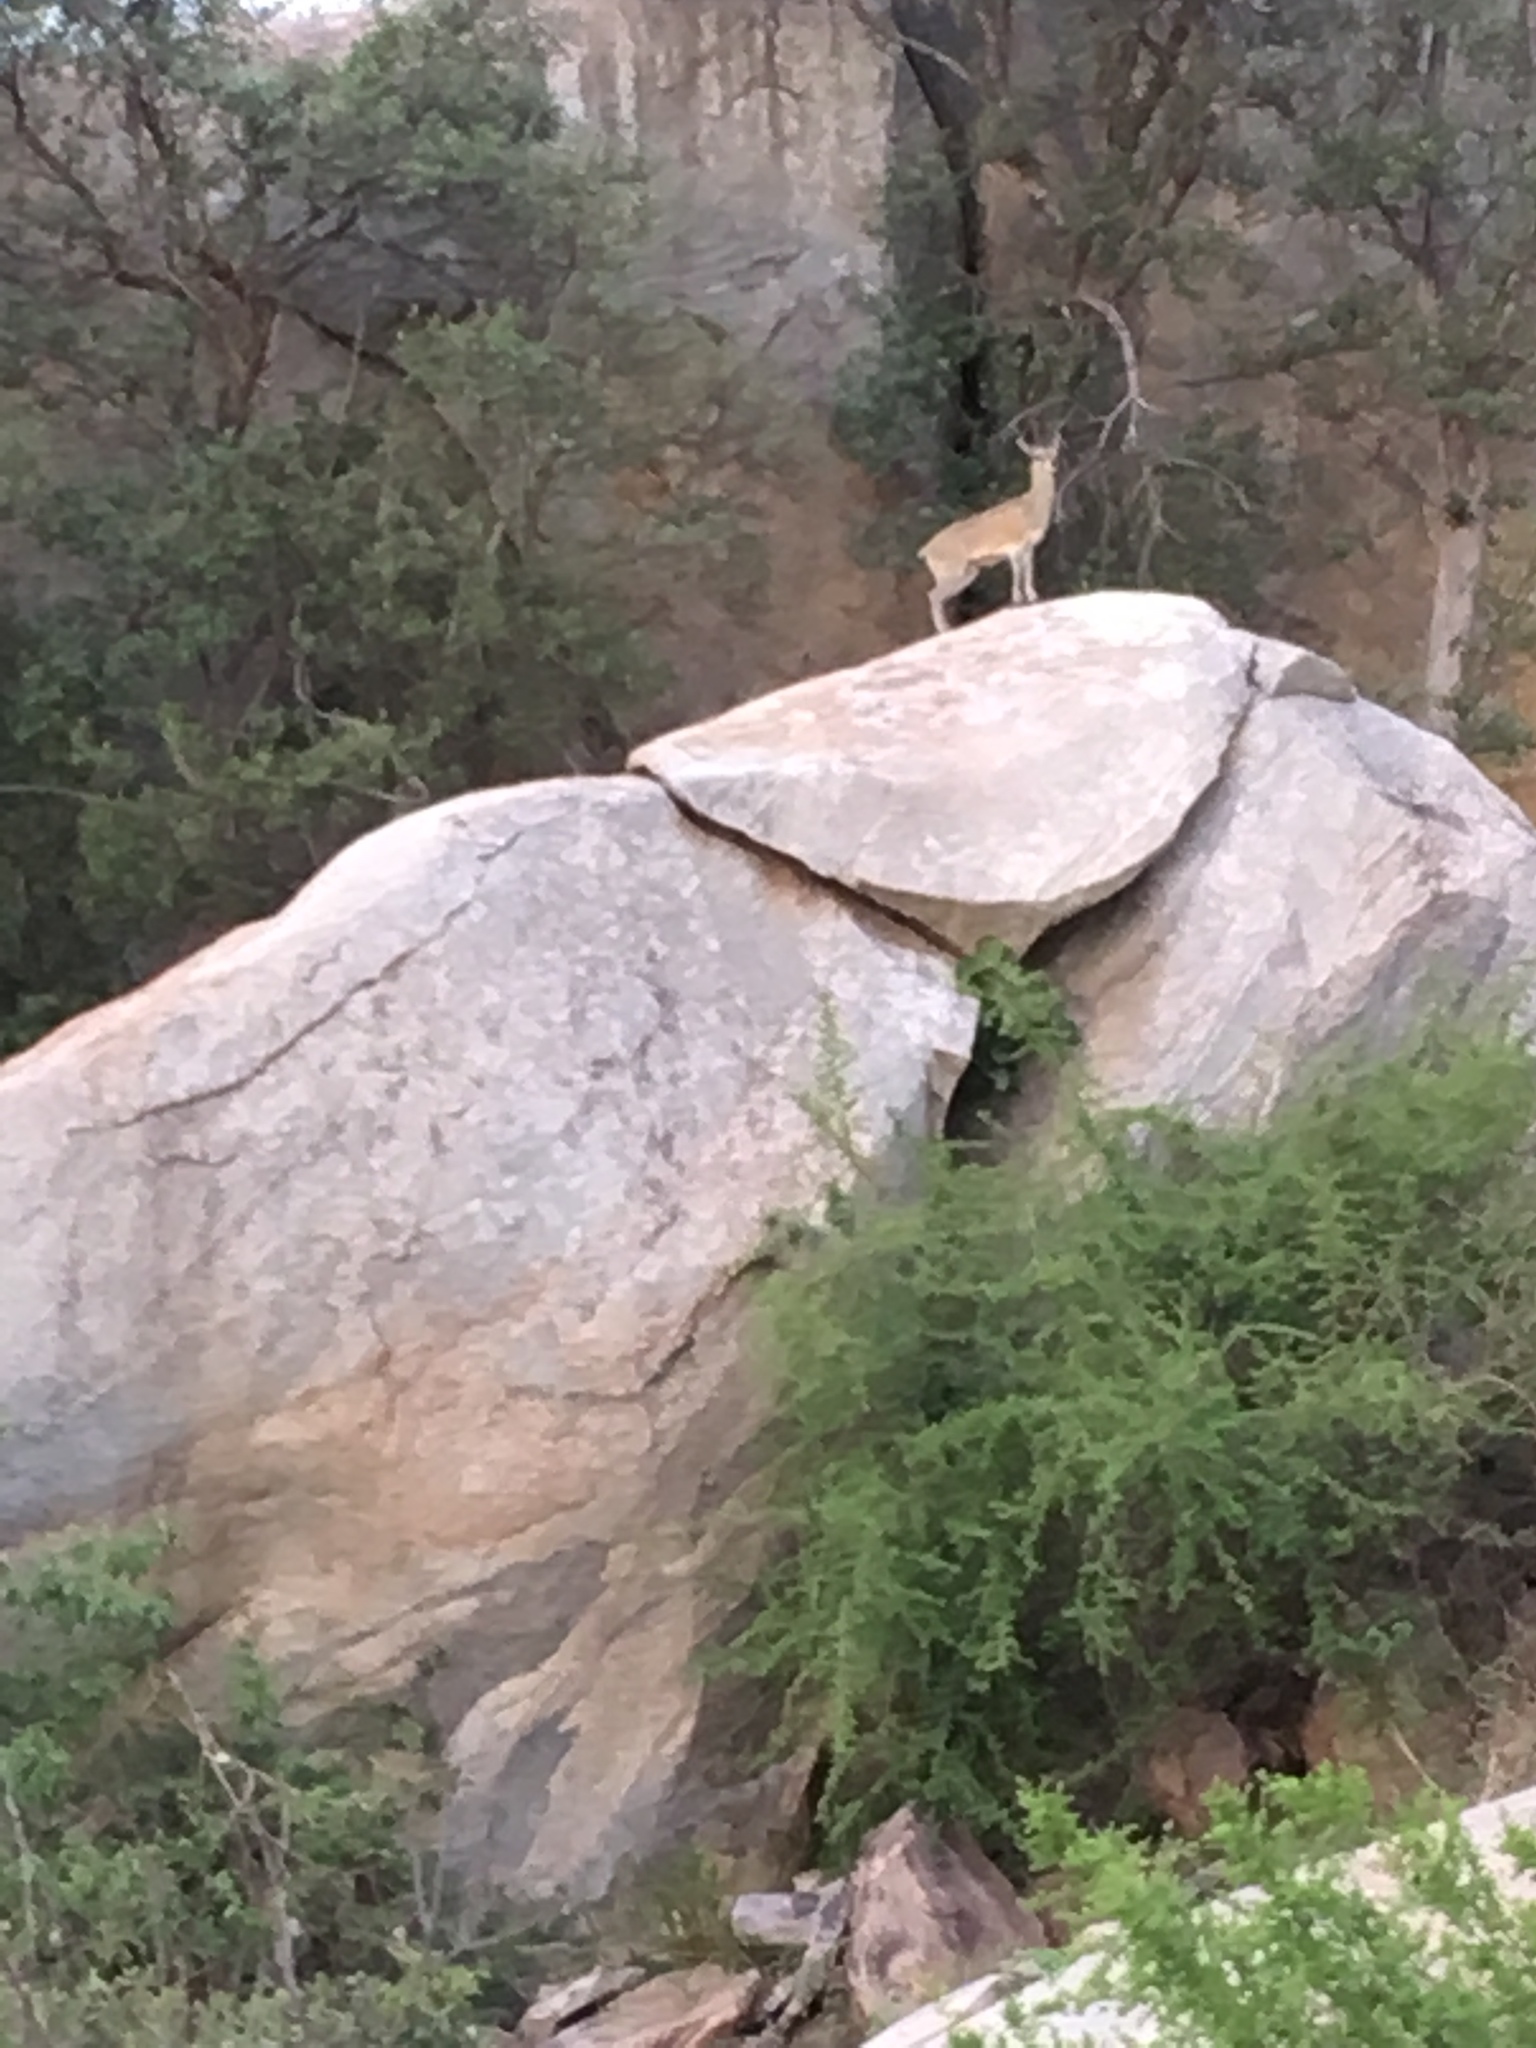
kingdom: Animalia
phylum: Chordata
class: Mammalia
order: Artiodactyla
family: Bovidae
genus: Oreotragus
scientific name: Oreotragus oreotragus
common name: Klipspringer
